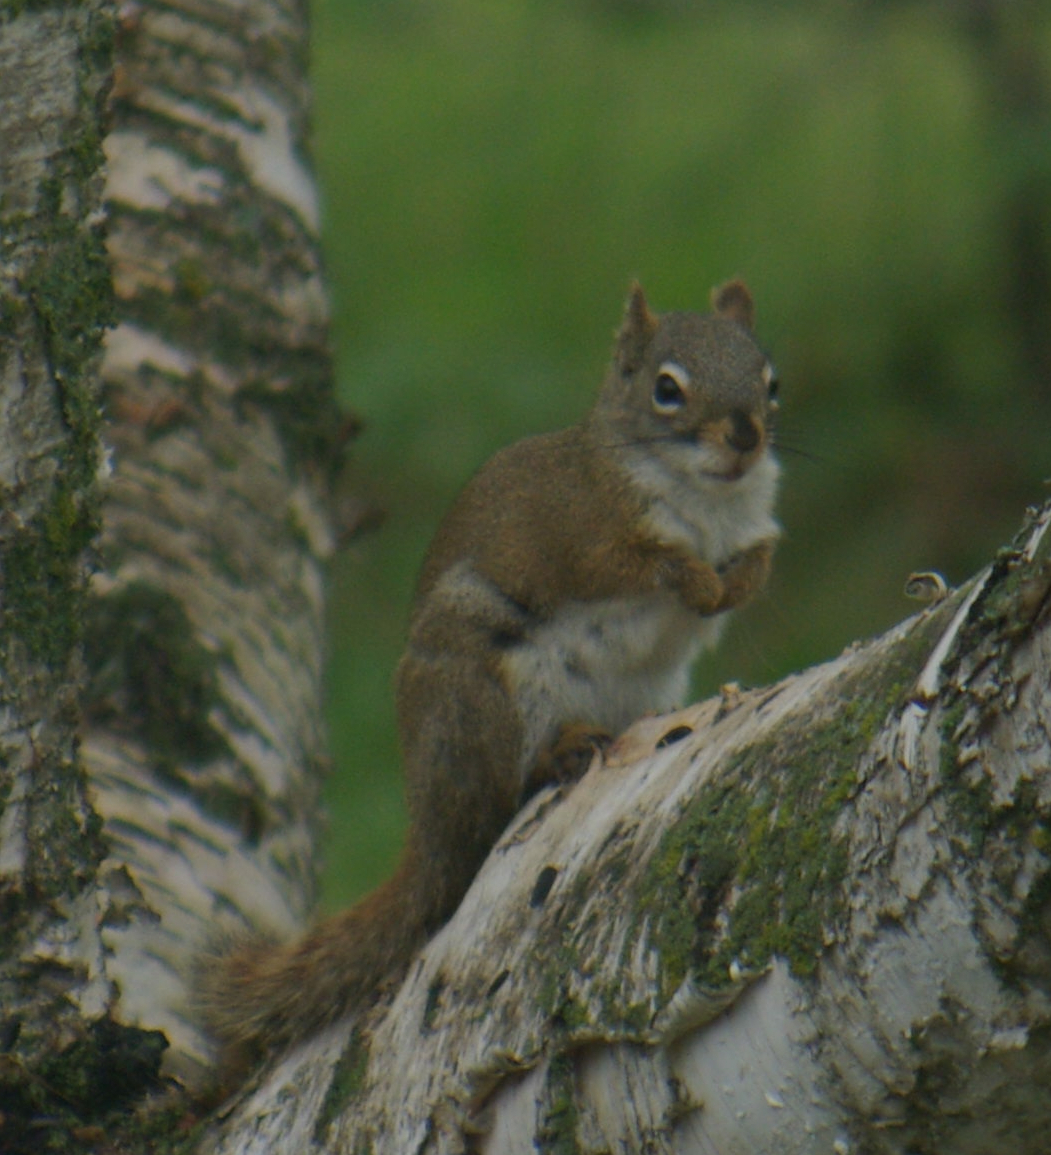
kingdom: Animalia
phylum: Chordata
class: Mammalia
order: Rodentia
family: Sciuridae
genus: Tamiasciurus
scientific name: Tamiasciurus hudsonicus
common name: Red squirrel
